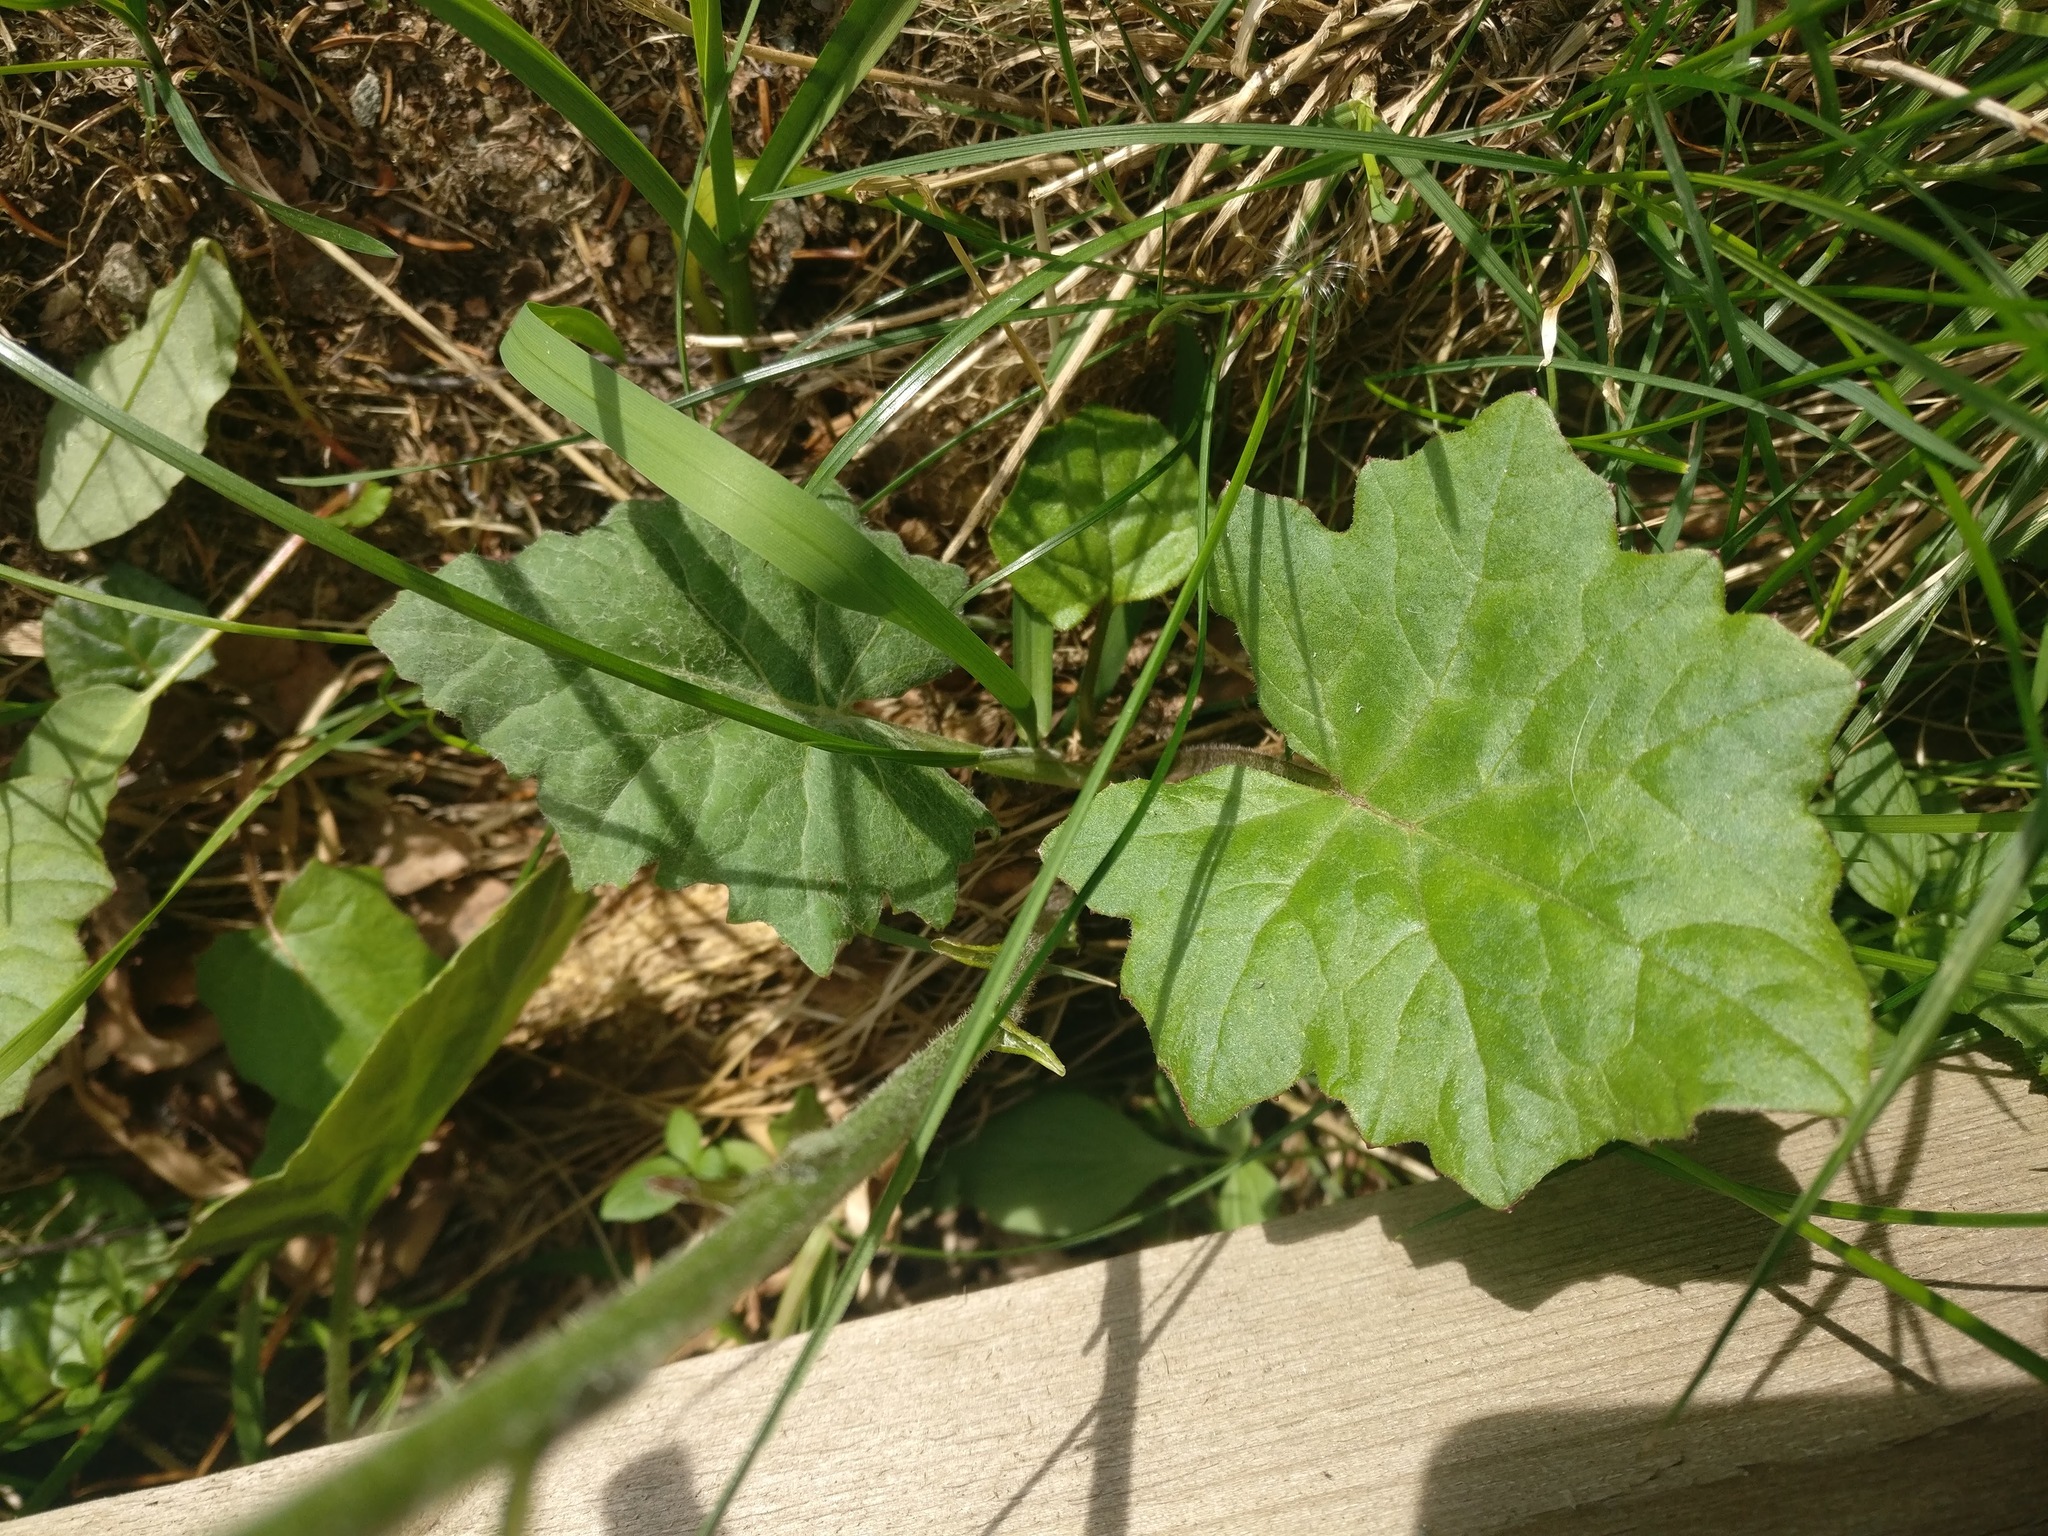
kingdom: Plantae
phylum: Tracheophyta
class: Magnoliopsida
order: Asterales
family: Asteraceae
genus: Tussilago
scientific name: Tussilago farfara
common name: Coltsfoot
